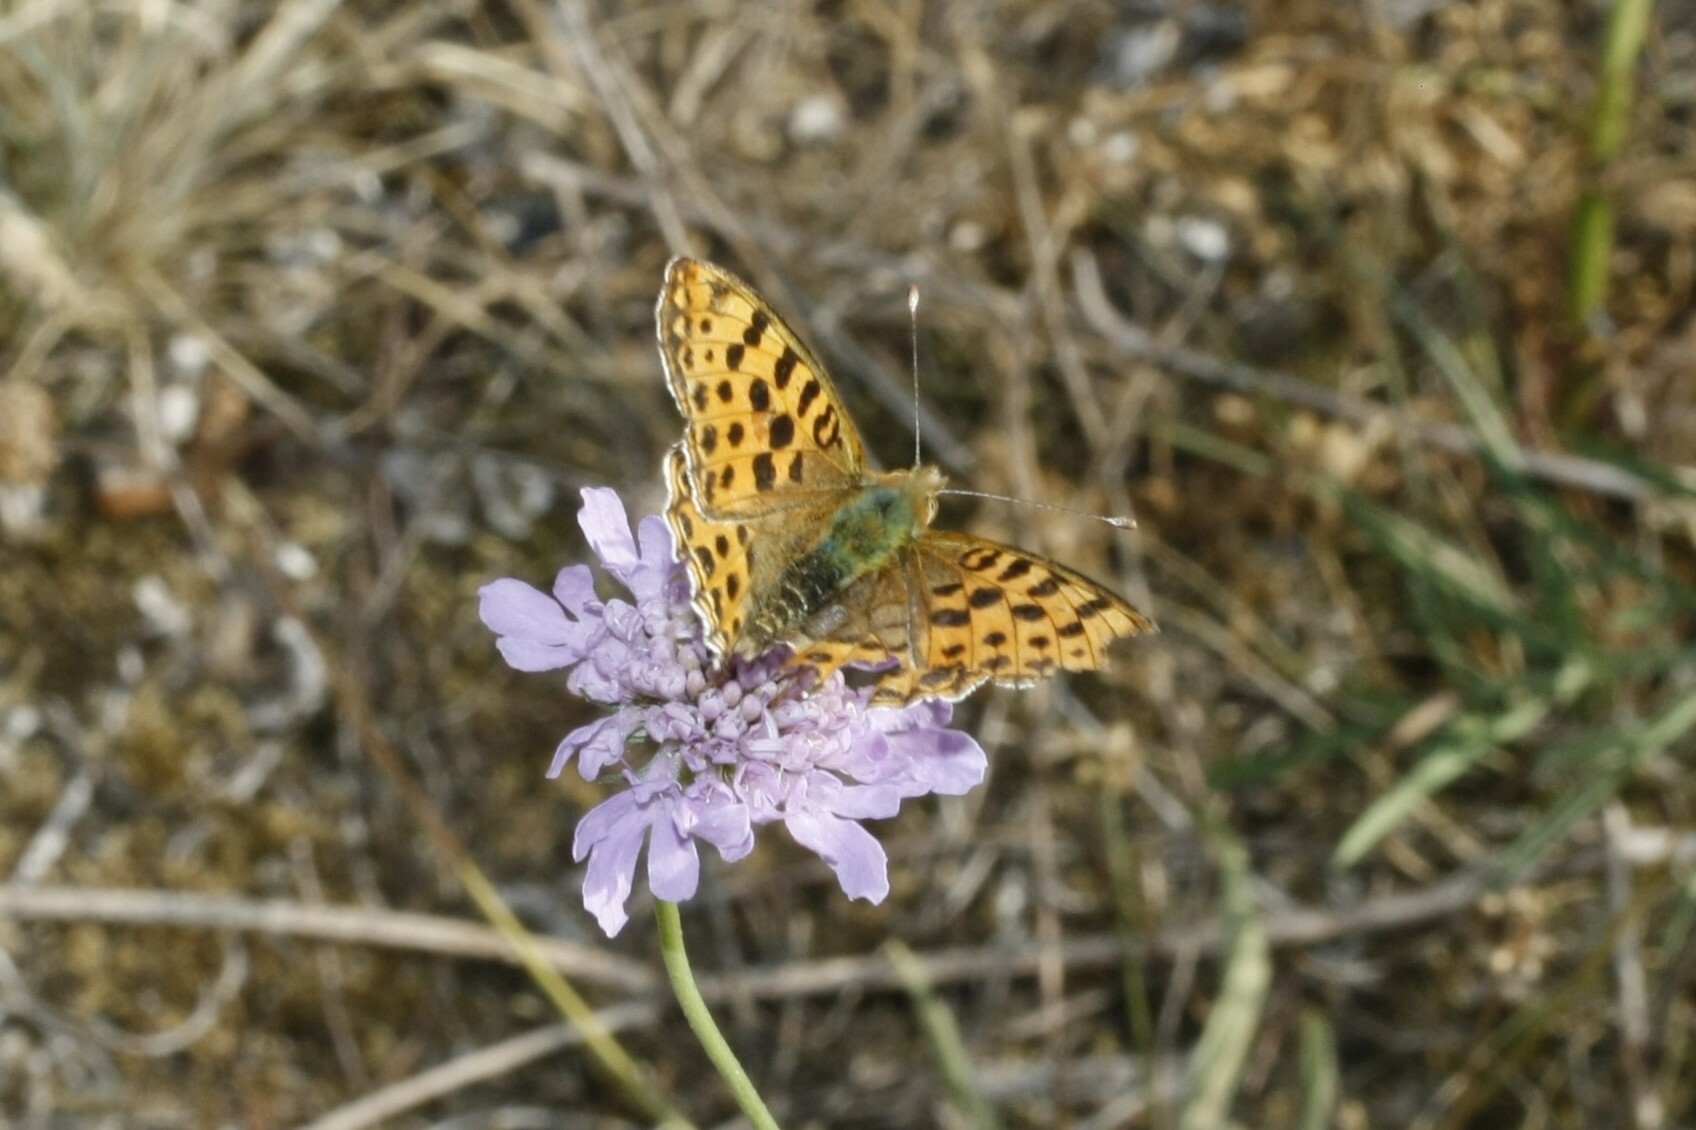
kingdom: Animalia
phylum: Arthropoda
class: Insecta
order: Lepidoptera
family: Nymphalidae
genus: Issoria
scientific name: Issoria lathonia
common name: Queen of spain fritillary
